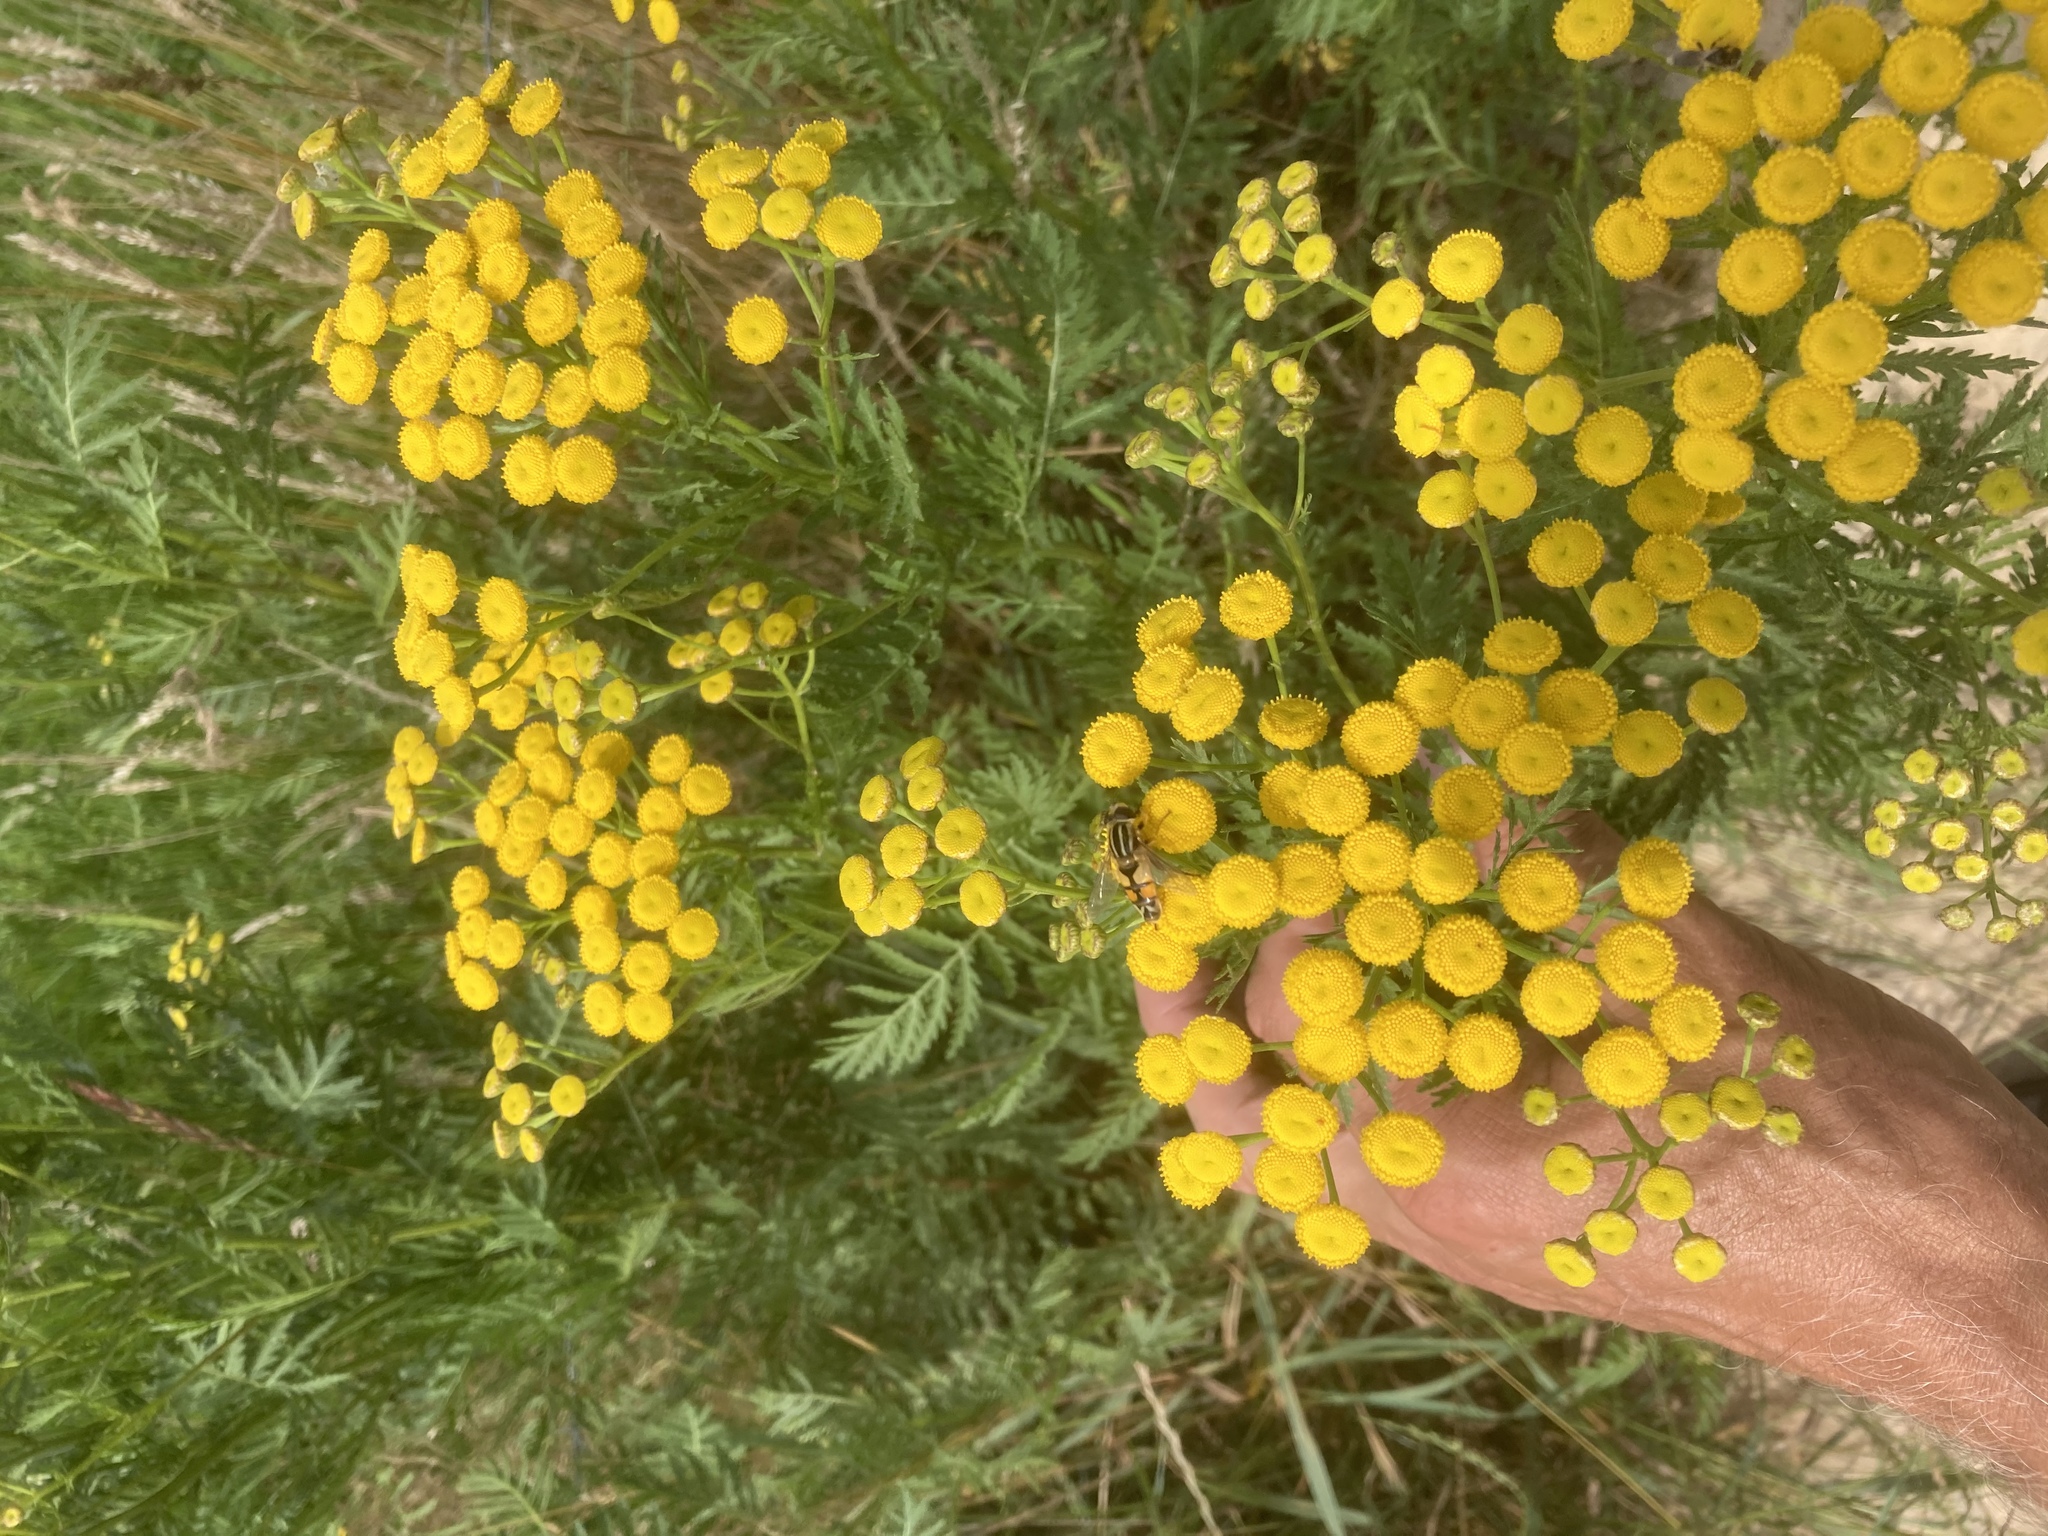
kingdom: Plantae
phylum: Tracheophyta
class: Magnoliopsida
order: Asterales
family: Asteraceae
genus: Tanacetum
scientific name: Tanacetum vulgare
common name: Common tansy
